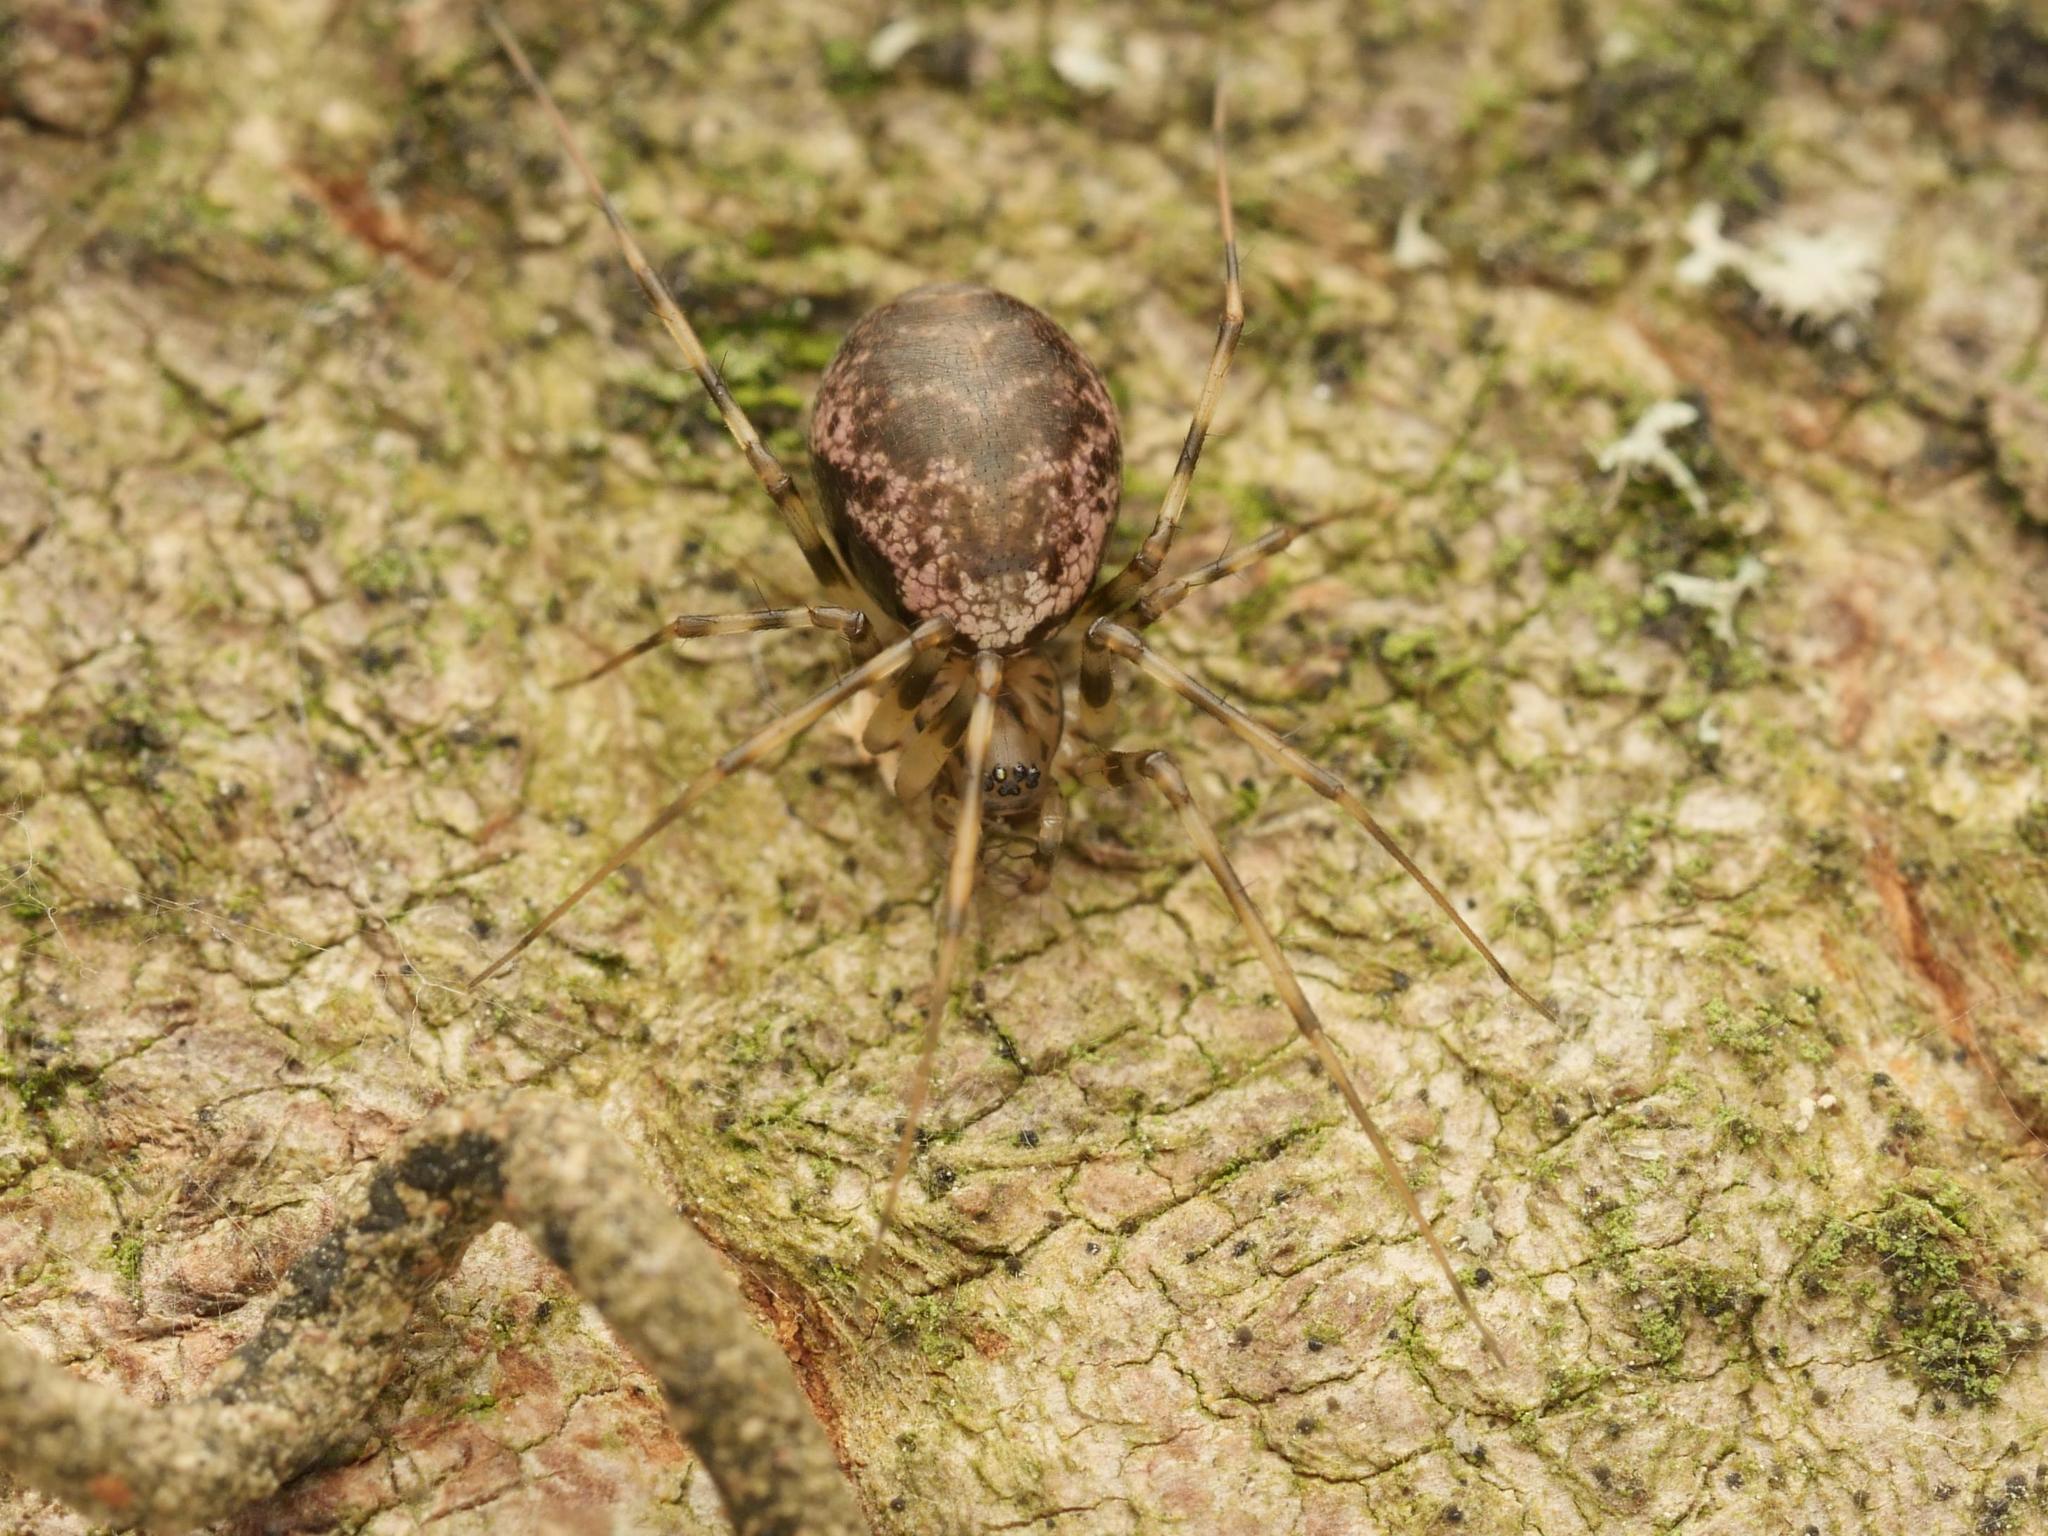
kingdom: Animalia
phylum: Arthropoda
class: Arachnida
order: Araneae
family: Linyphiidae
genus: Drapetisca
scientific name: Drapetisca socialis
